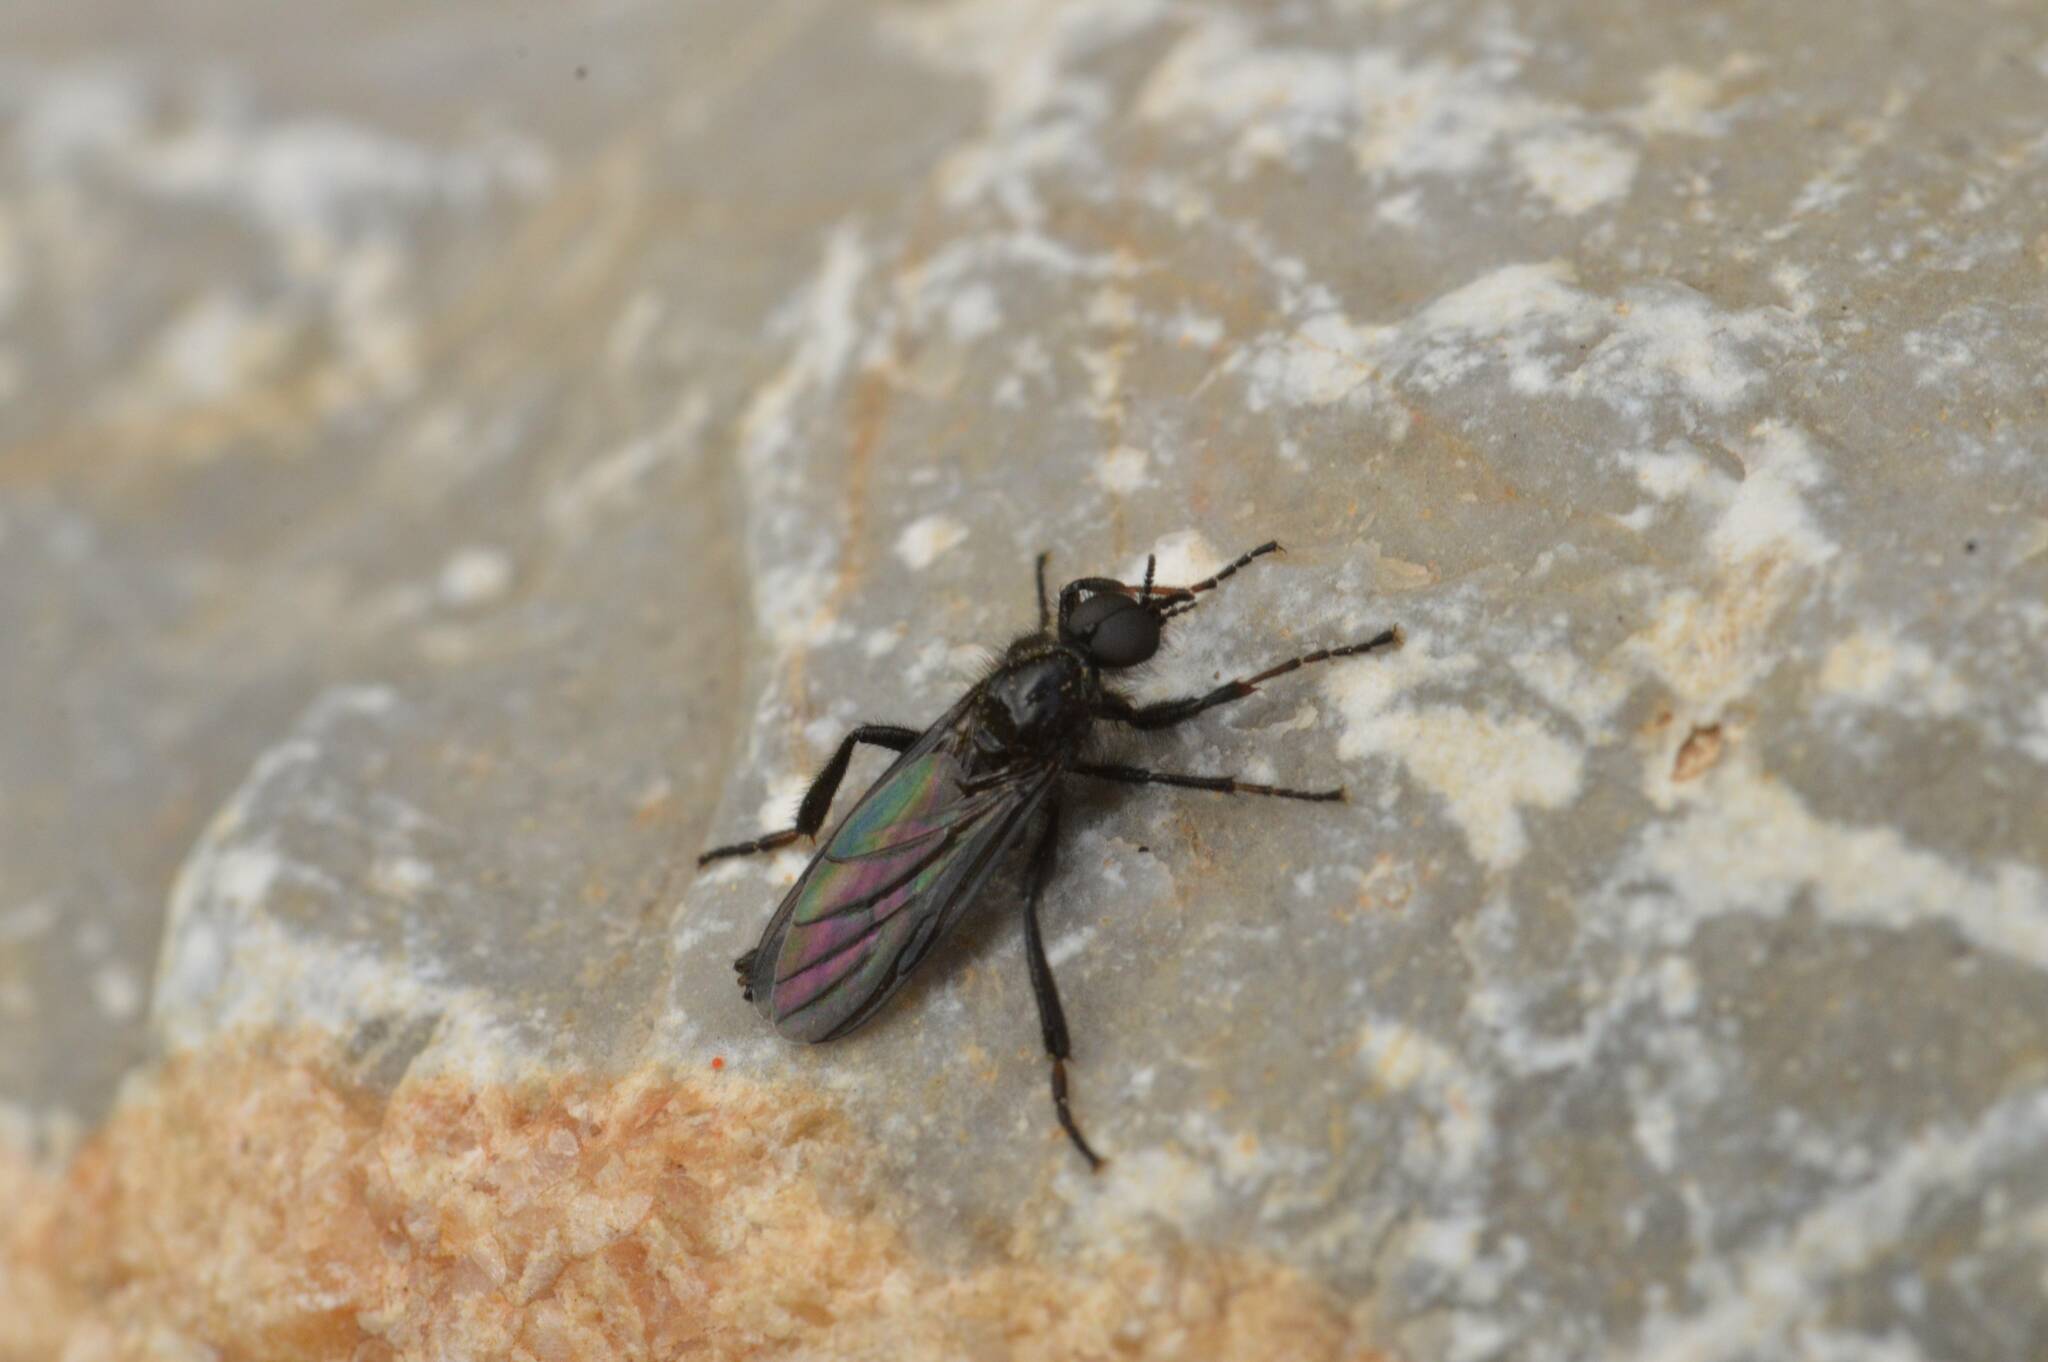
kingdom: Animalia
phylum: Arthropoda
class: Insecta
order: Diptera
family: Bibionidae
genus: Bibio
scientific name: Bibio marci
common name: St marks fly
